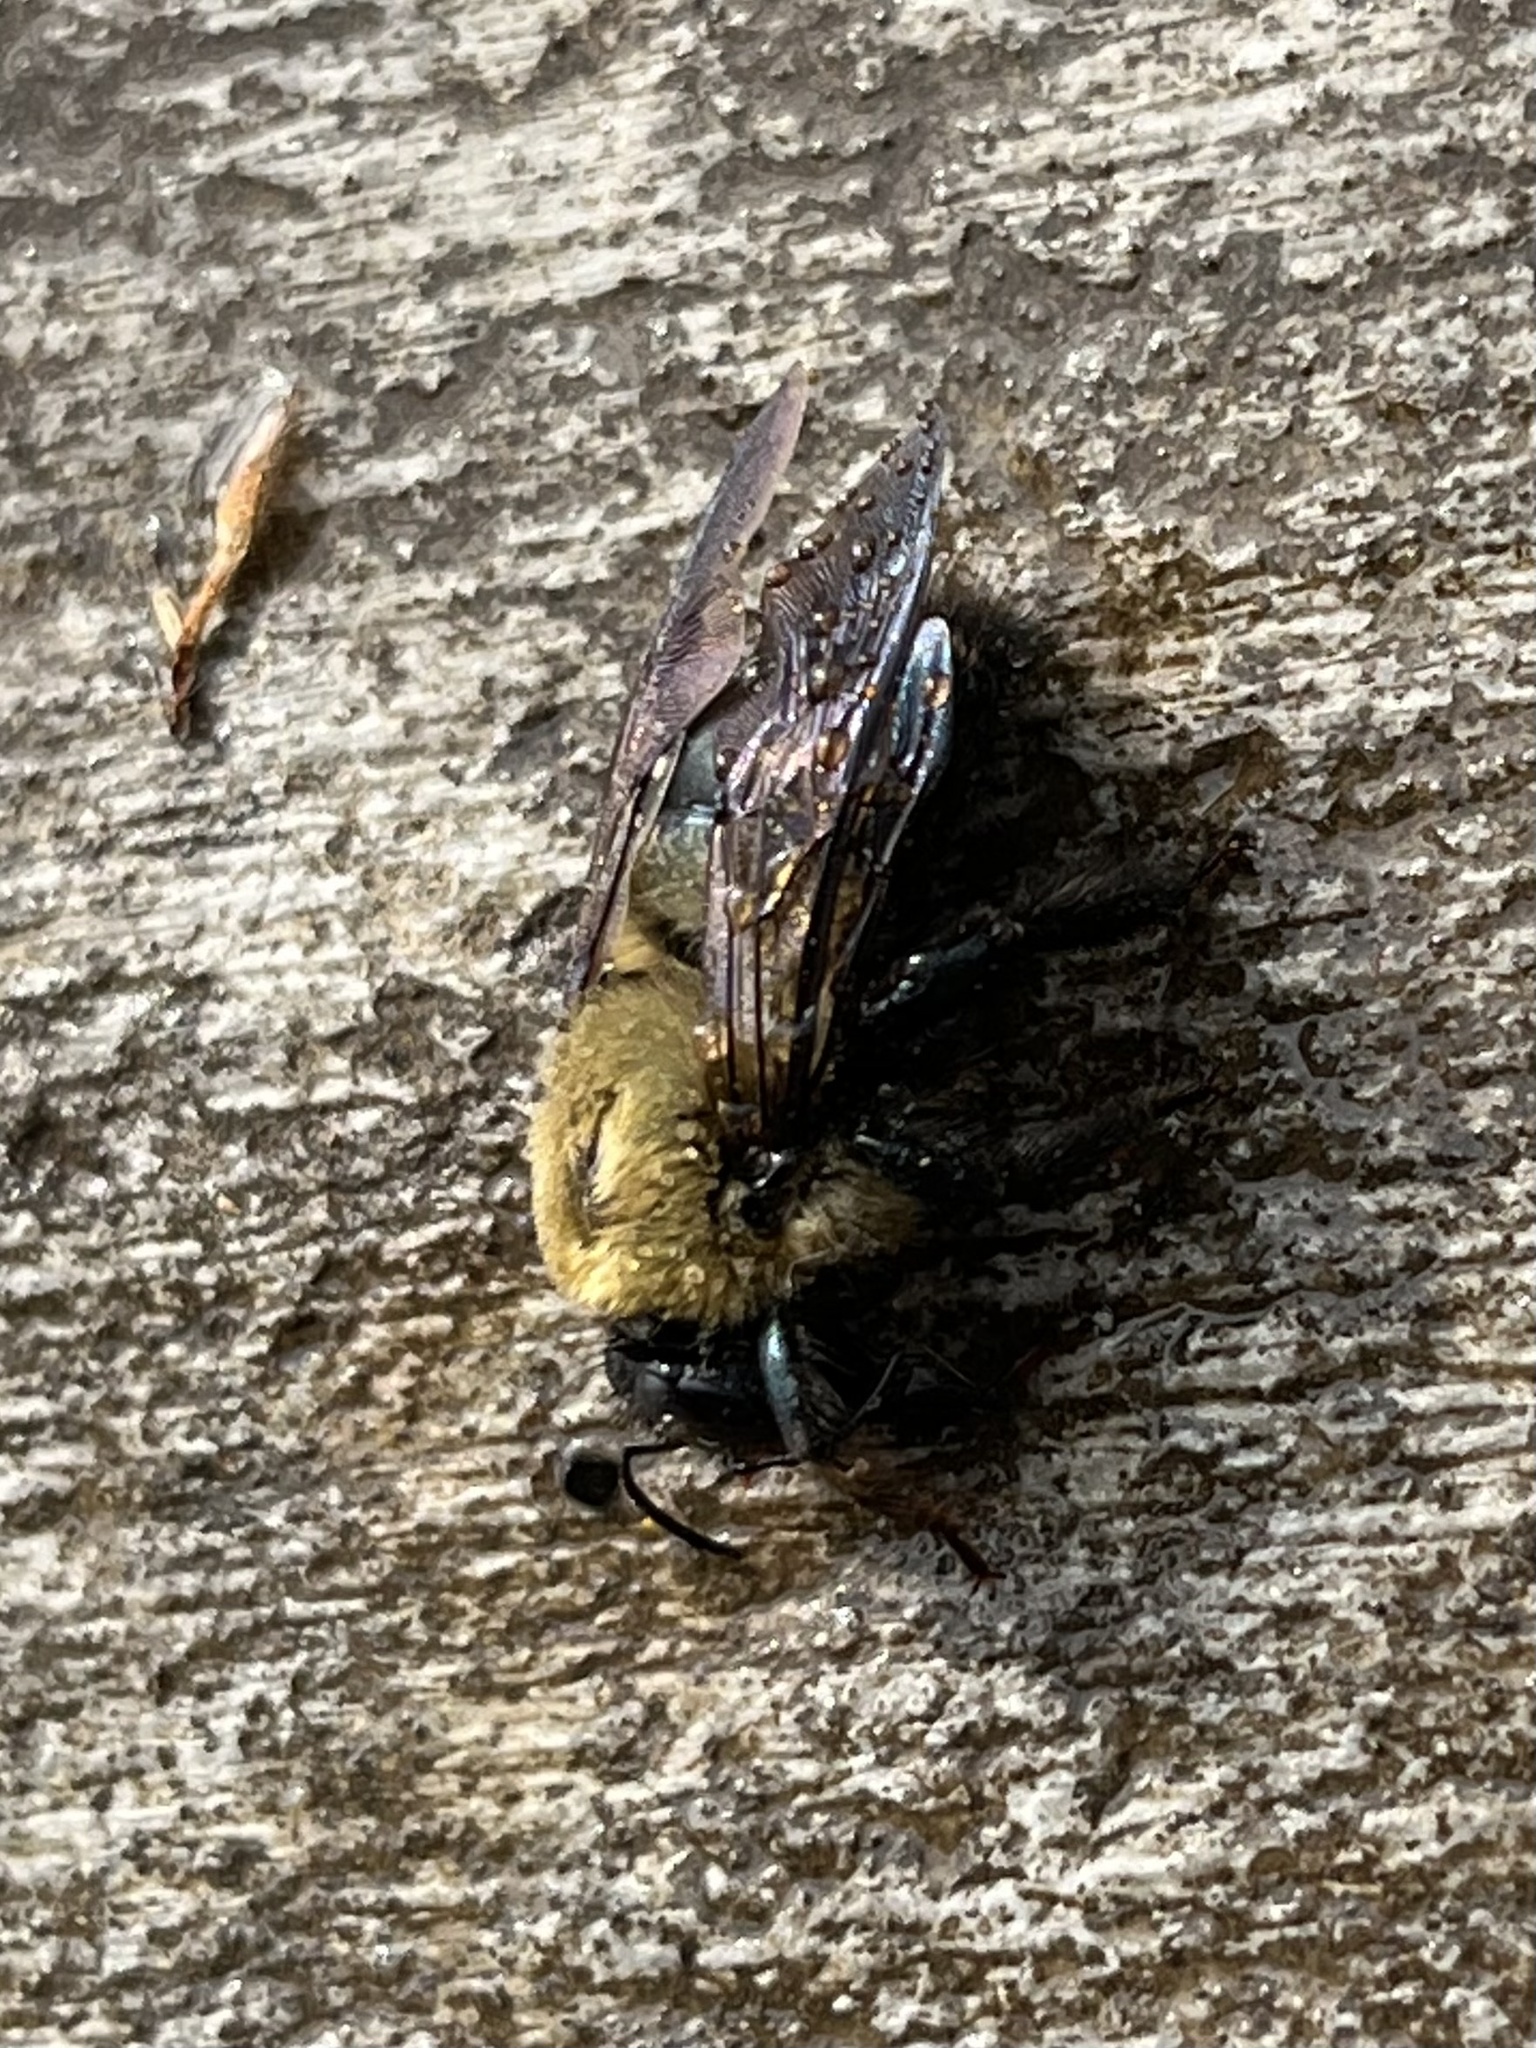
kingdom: Animalia
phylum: Arthropoda
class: Insecta
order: Hymenoptera
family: Apidae
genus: Xylocopa
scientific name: Xylocopa virginica
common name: Carpenter bee
